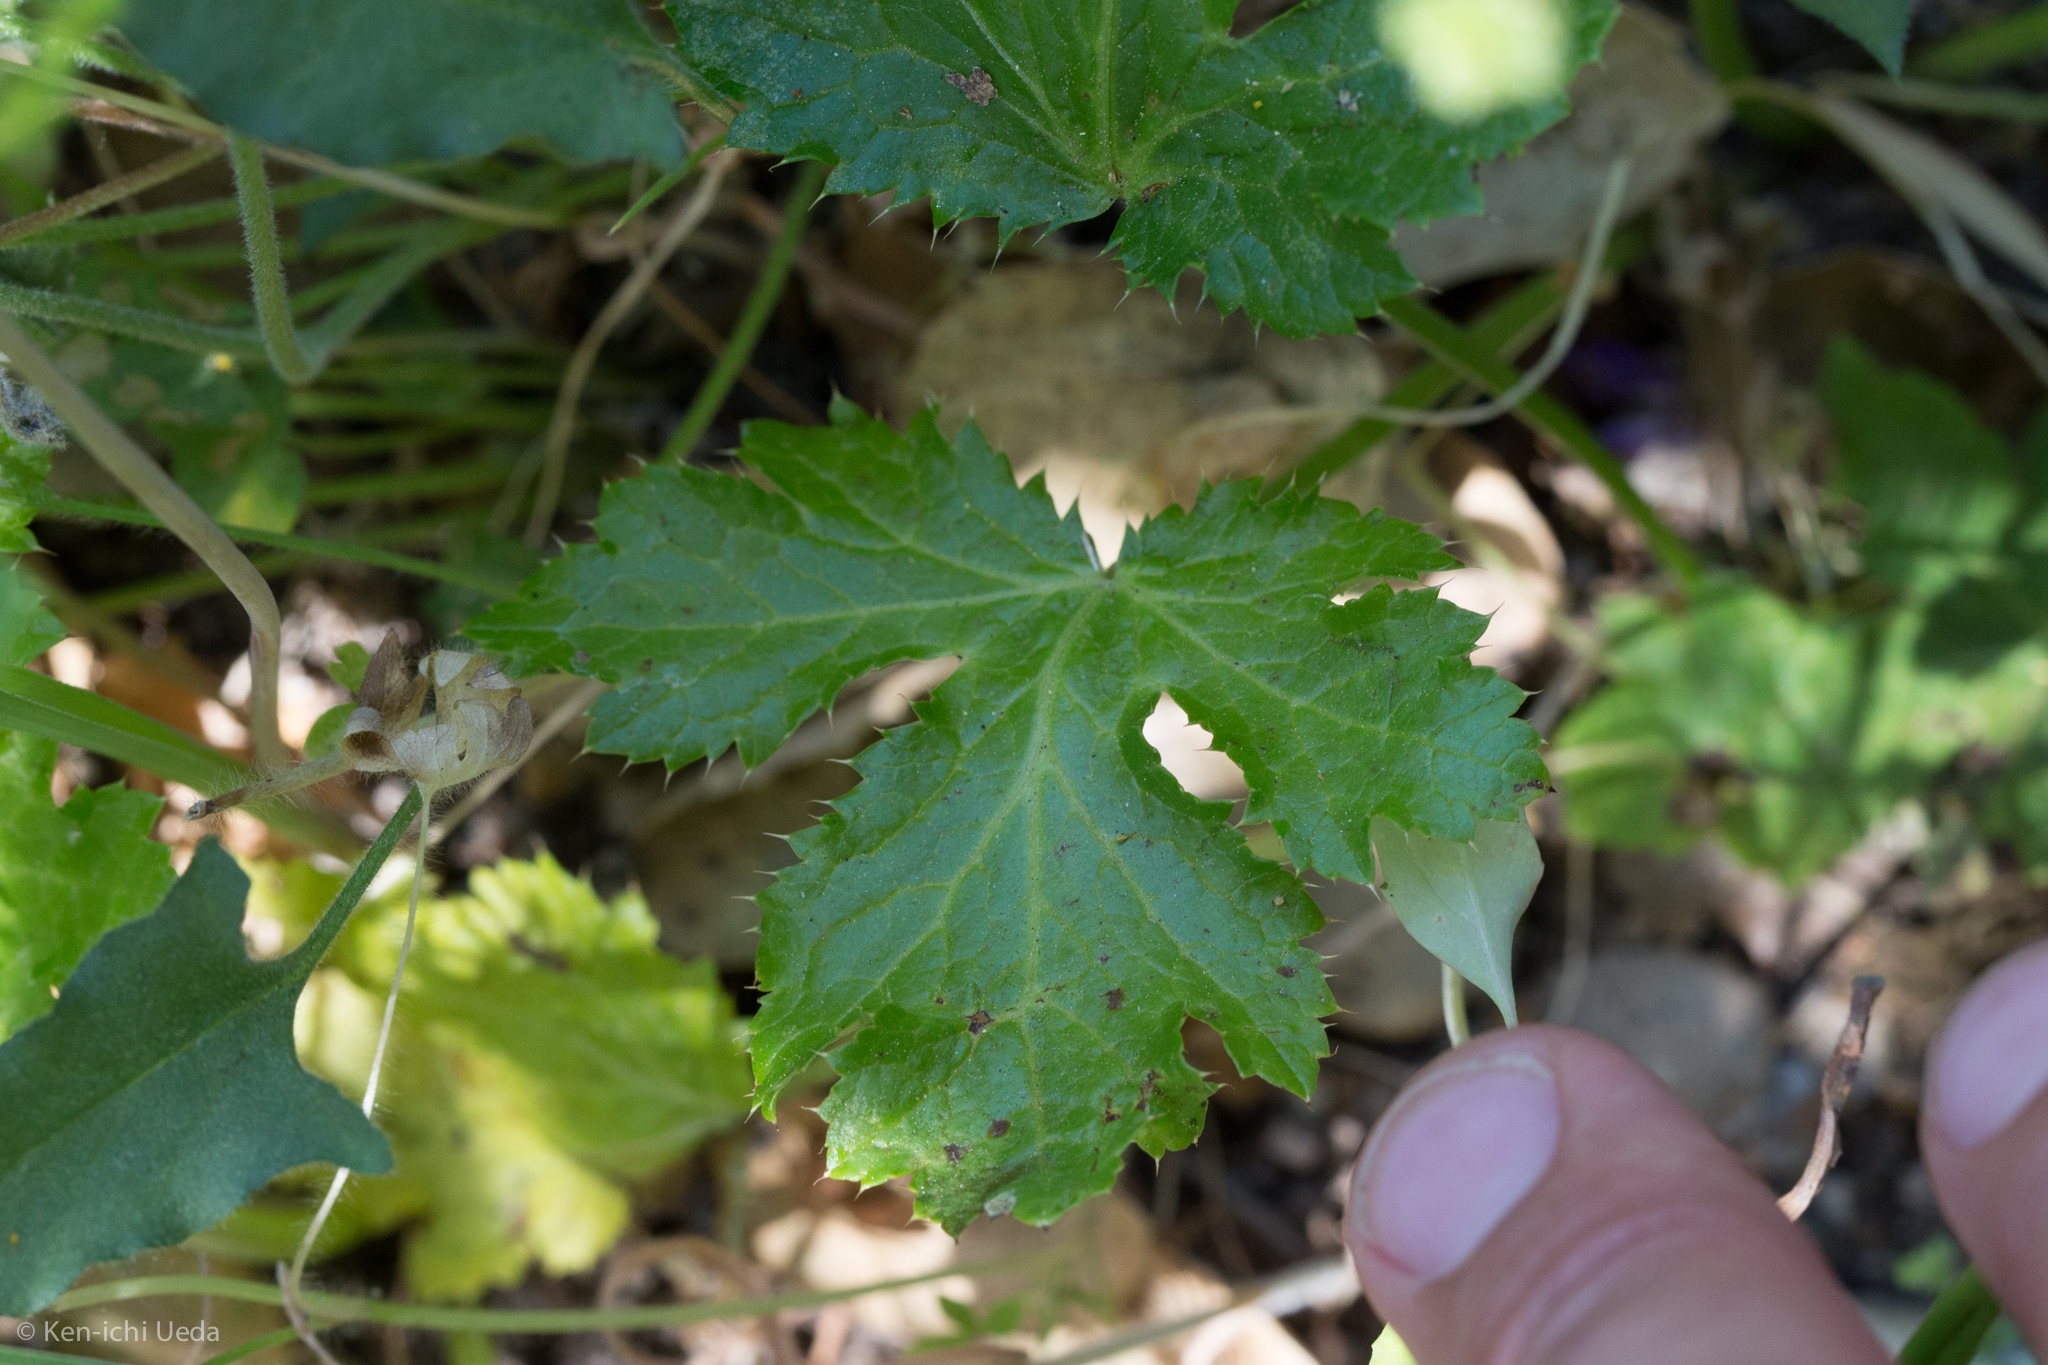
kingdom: Plantae
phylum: Tracheophyta
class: Magnoliopsida
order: Apiales
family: Apiaceae
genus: Sanicula
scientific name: Sanicula crassicaulis
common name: Western snakeroot
